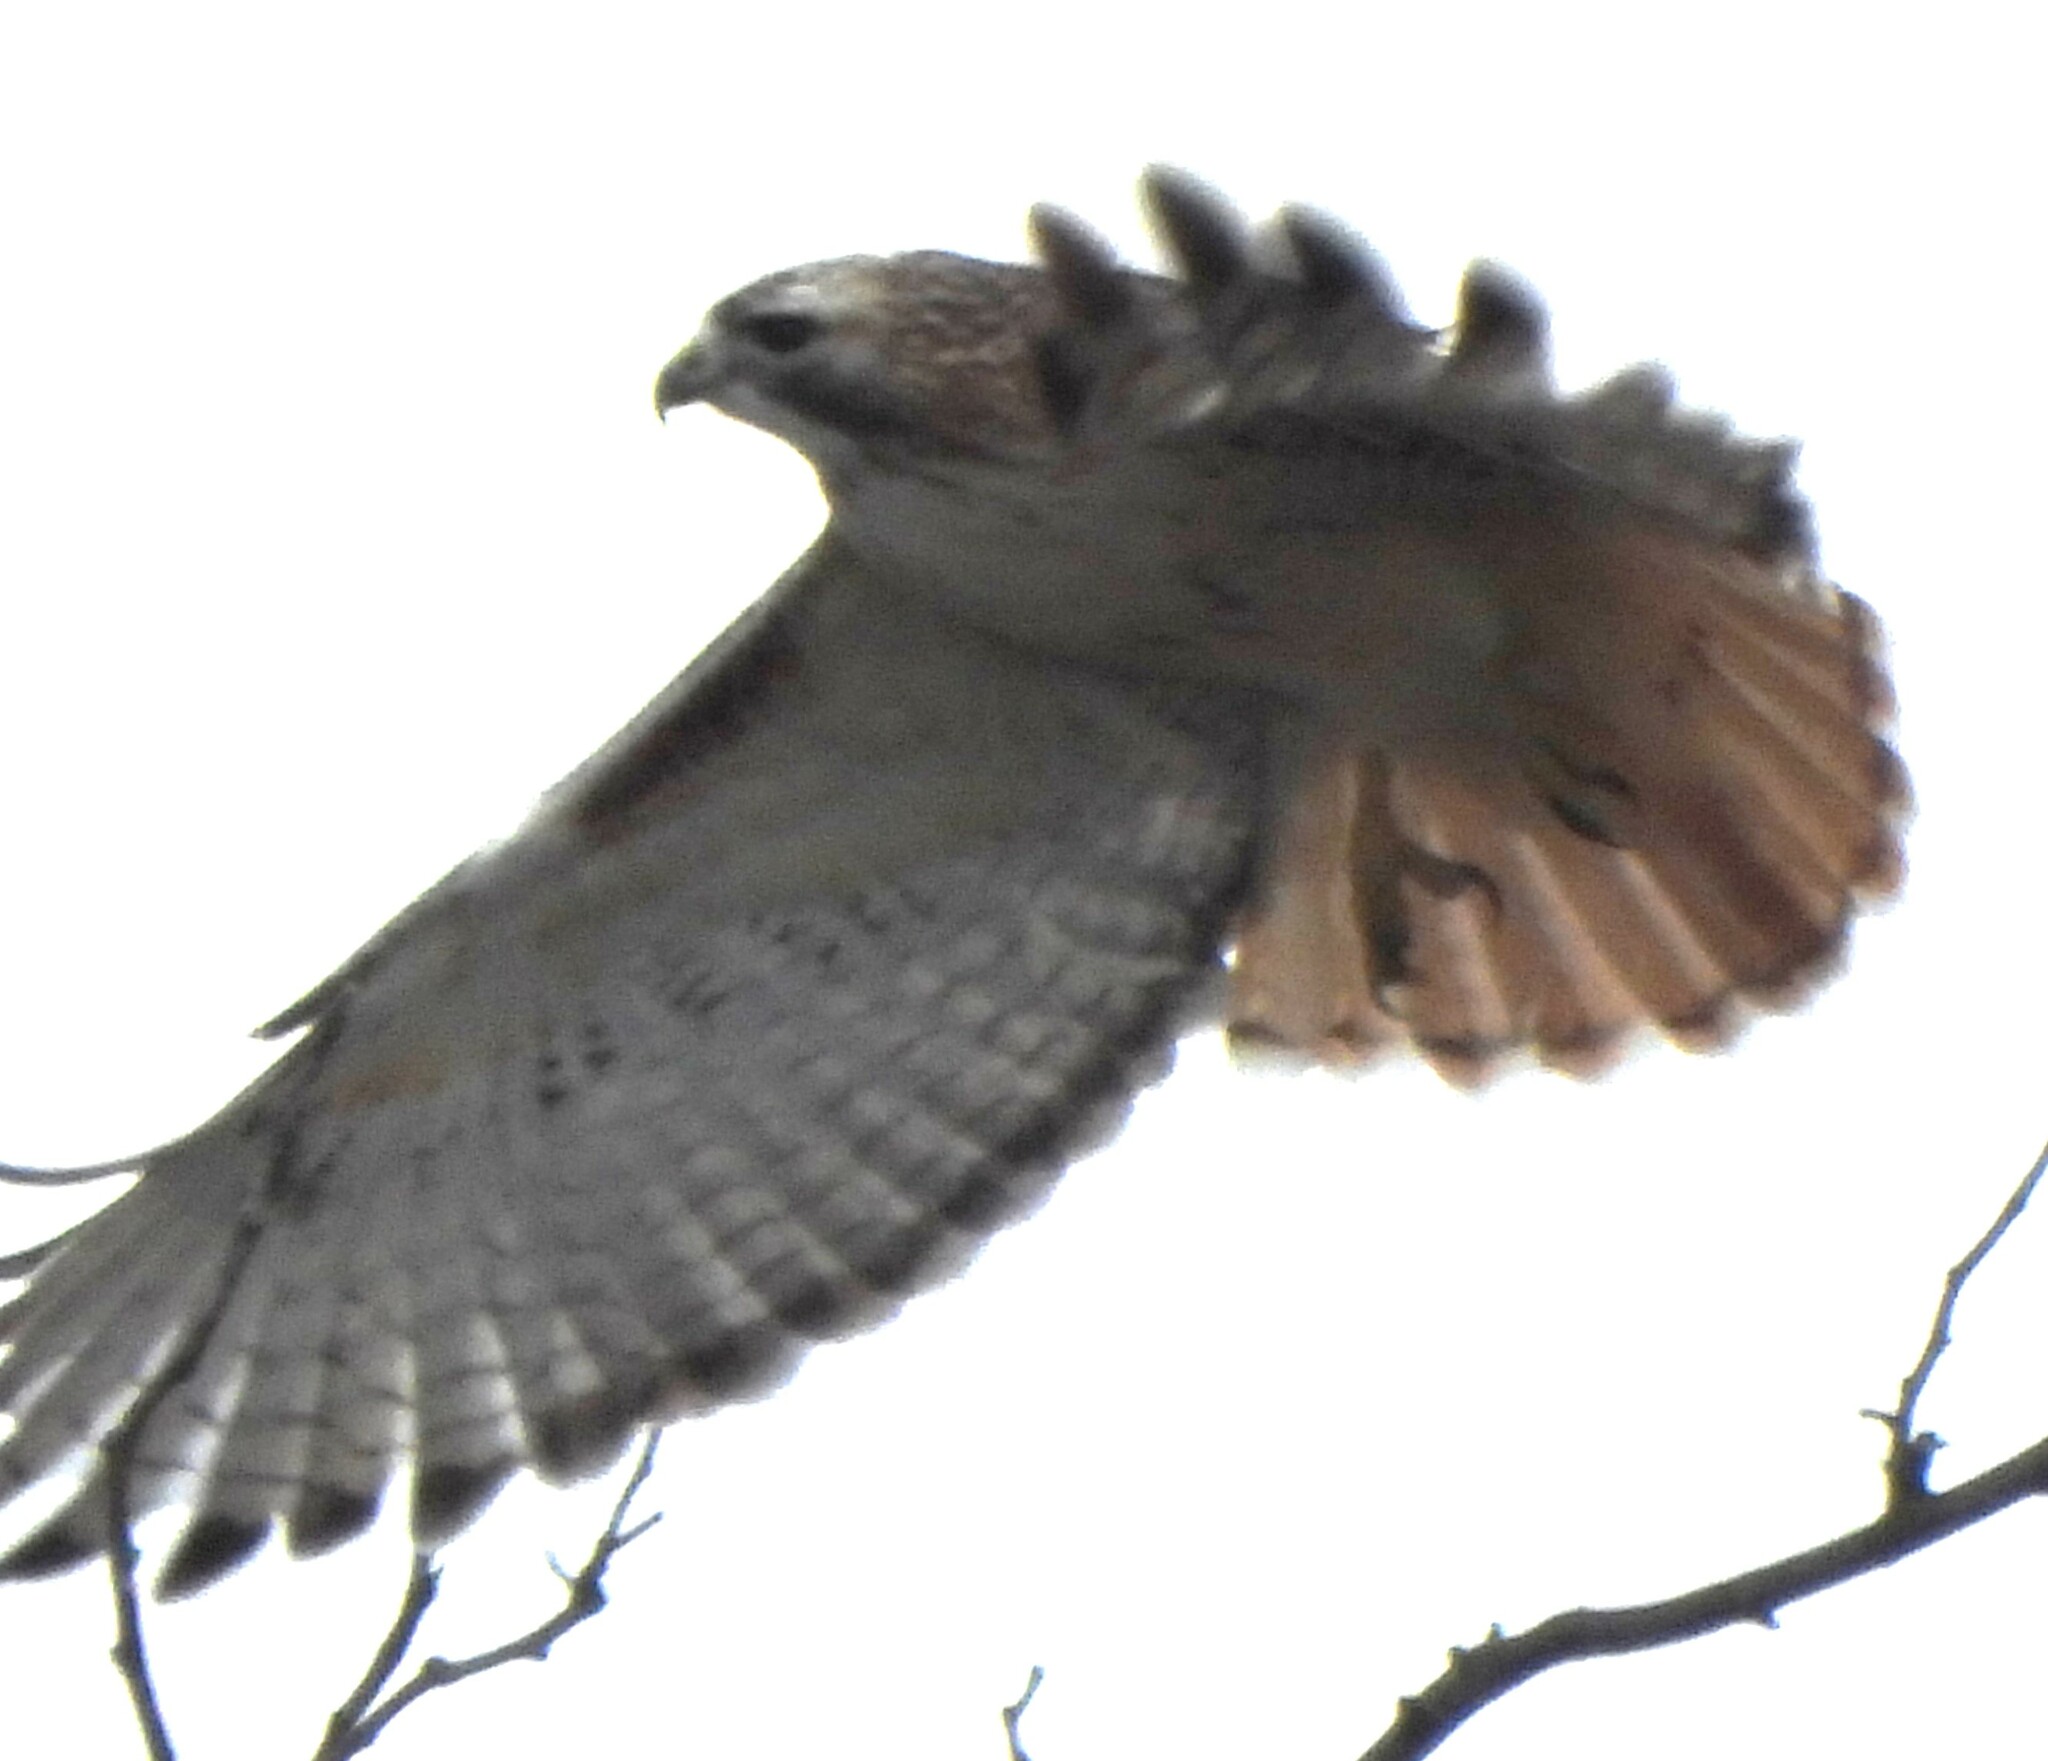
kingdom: Animalia
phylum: Chordata
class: Aves
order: Accipitriformes
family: Accipitridae
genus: Buteo
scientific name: Buteo jamaicensis
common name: Red-tailed hawk
